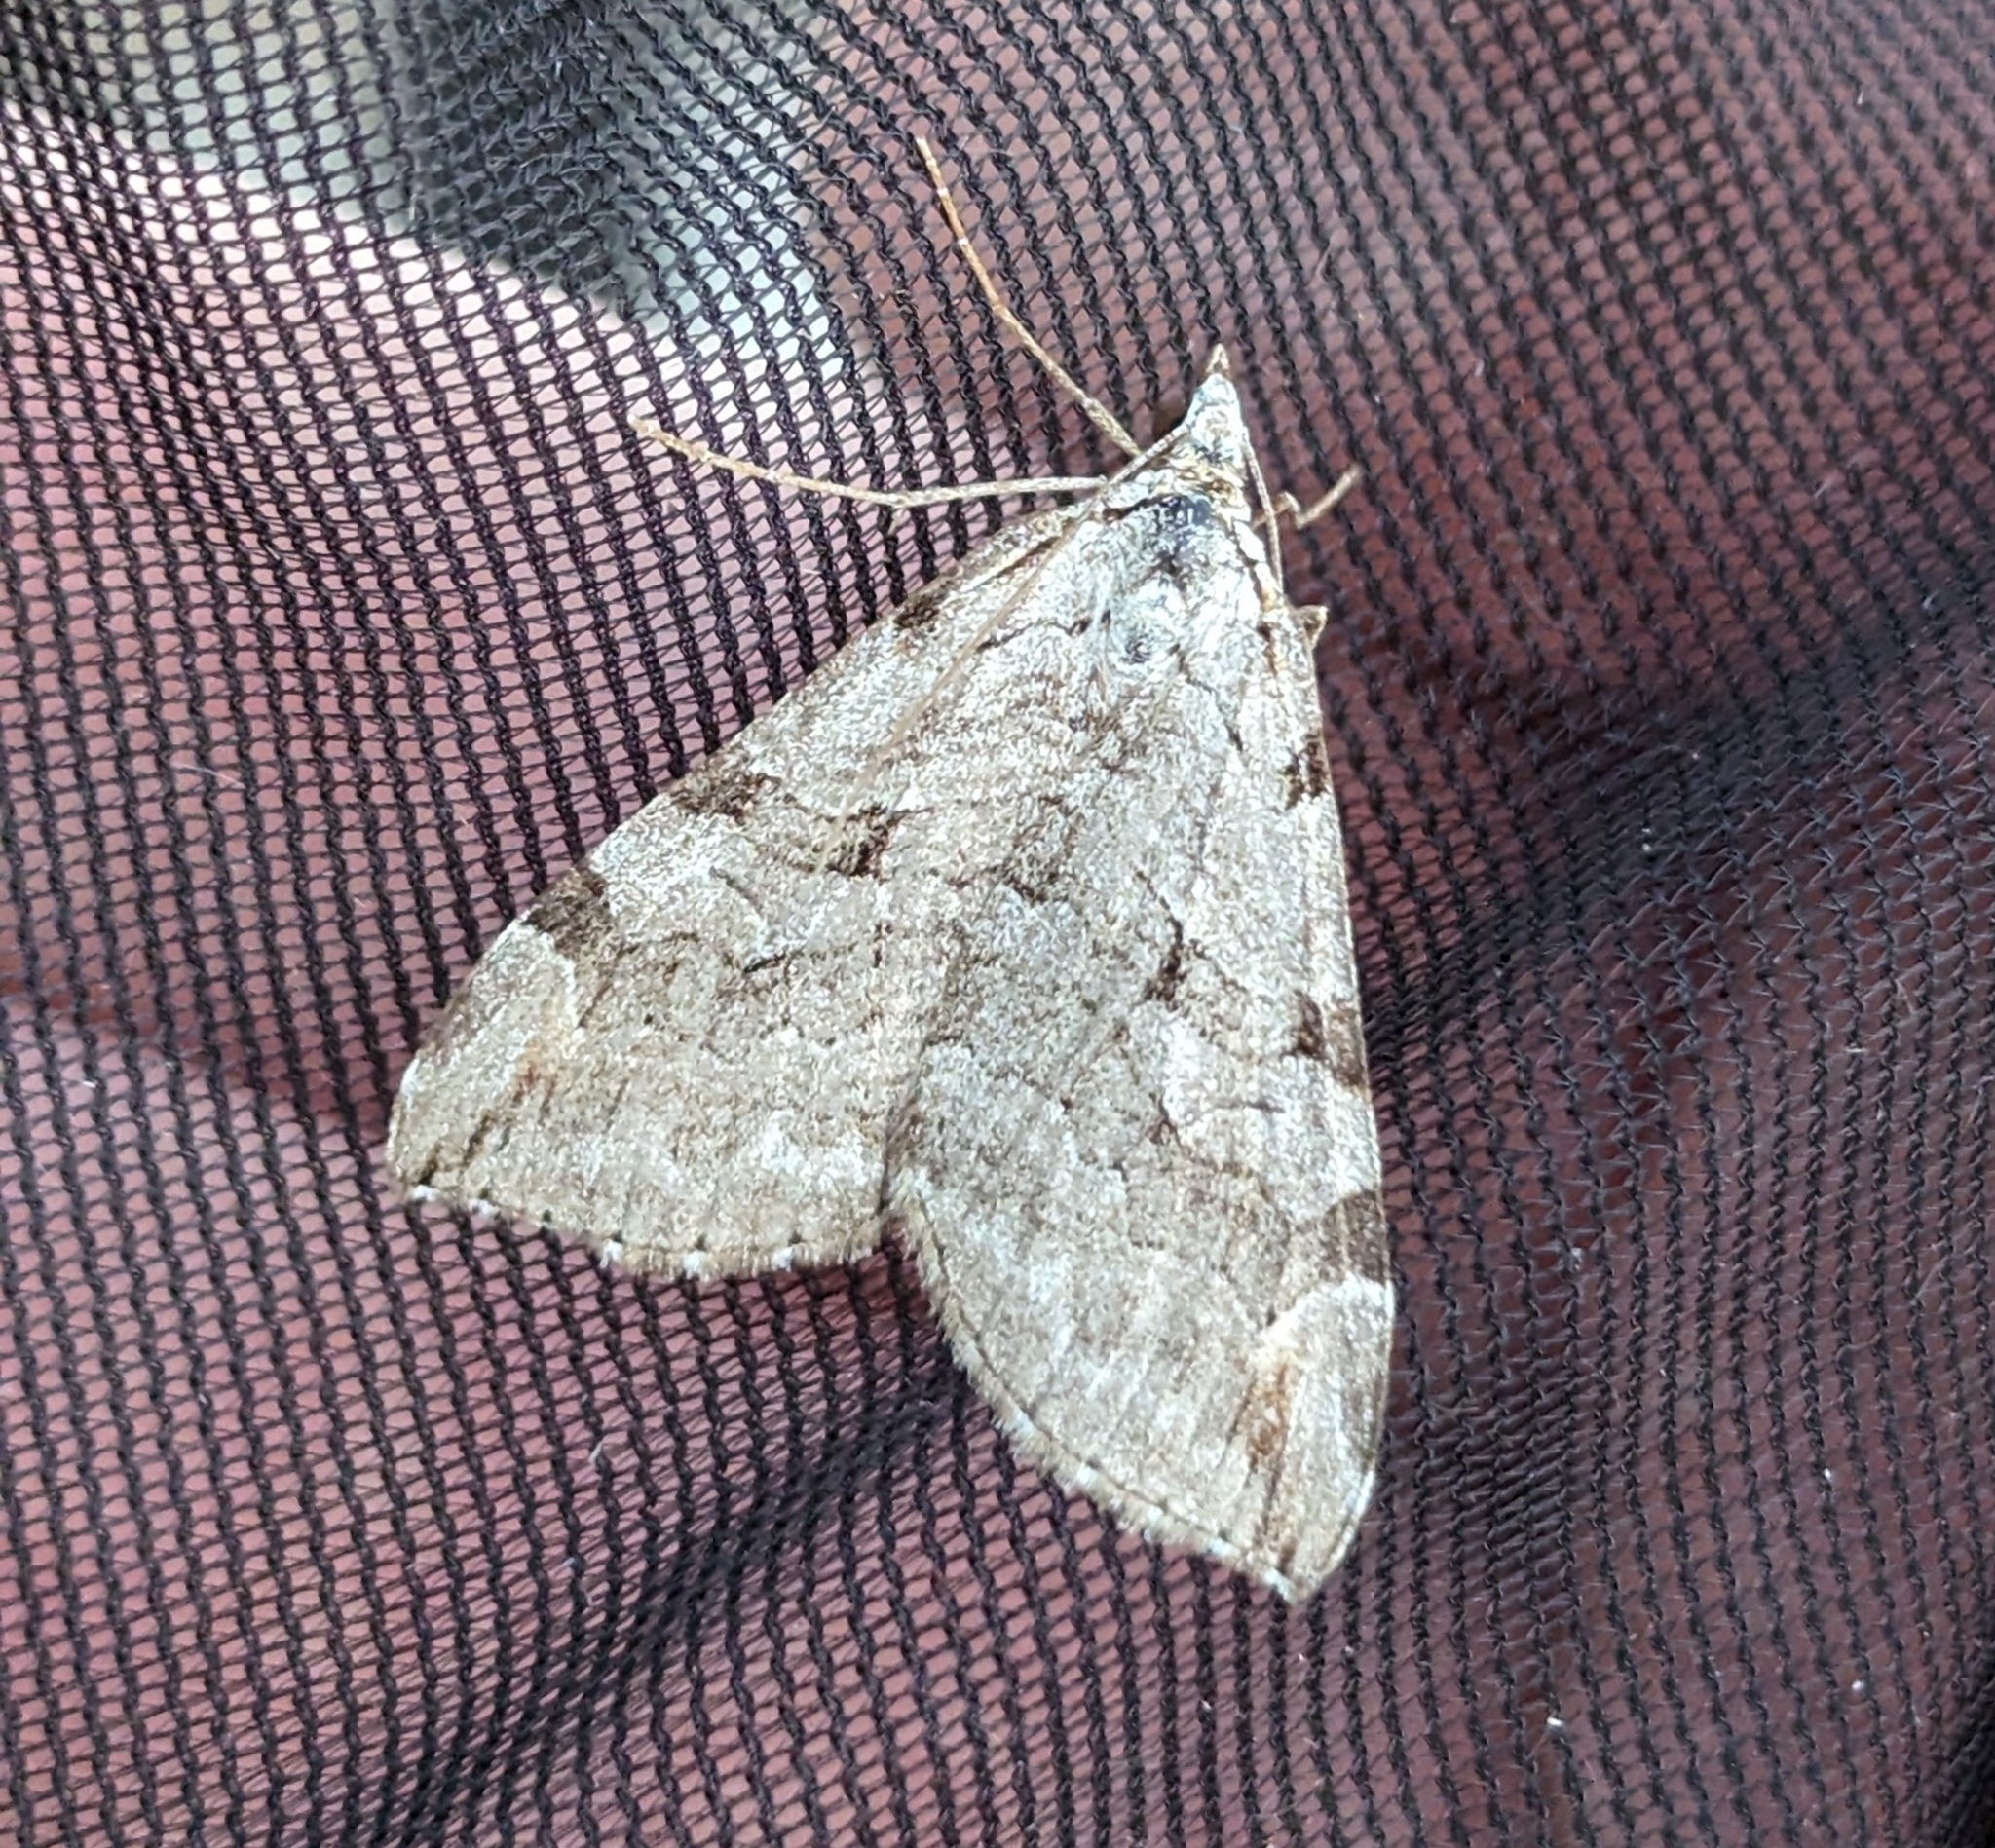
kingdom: Animalia
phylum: Arthropoda
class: Insecta
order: Lepidoptera
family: Geometridae
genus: Aplocera
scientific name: Aplocera plagiata
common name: Treble-bar
